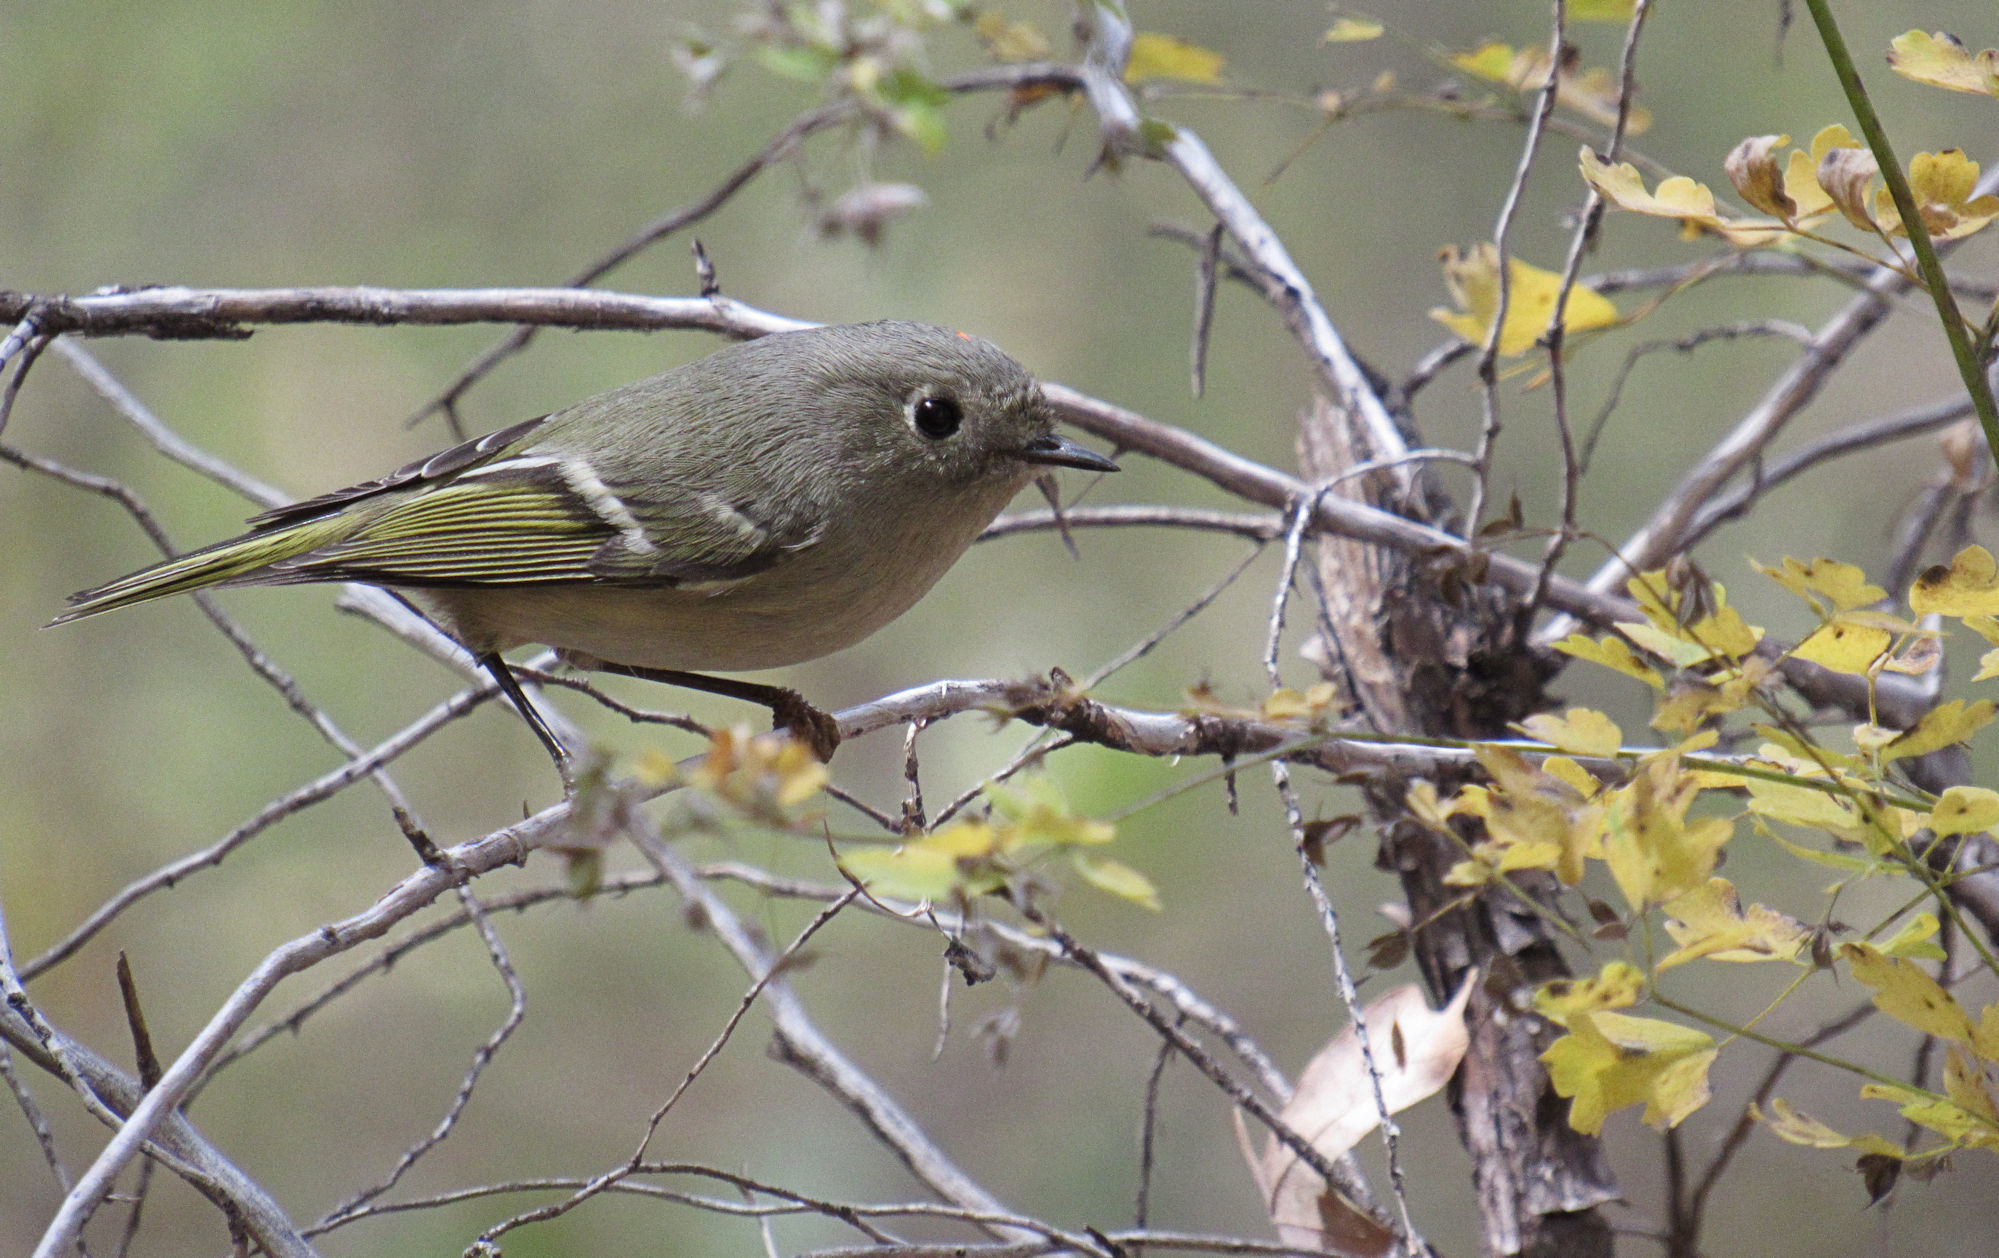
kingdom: Animalia
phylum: Chordata
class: Aves
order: Passeriformes
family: Regulidae
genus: Regulus
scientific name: Regulus calendula
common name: Ruby-crowned kinglet
